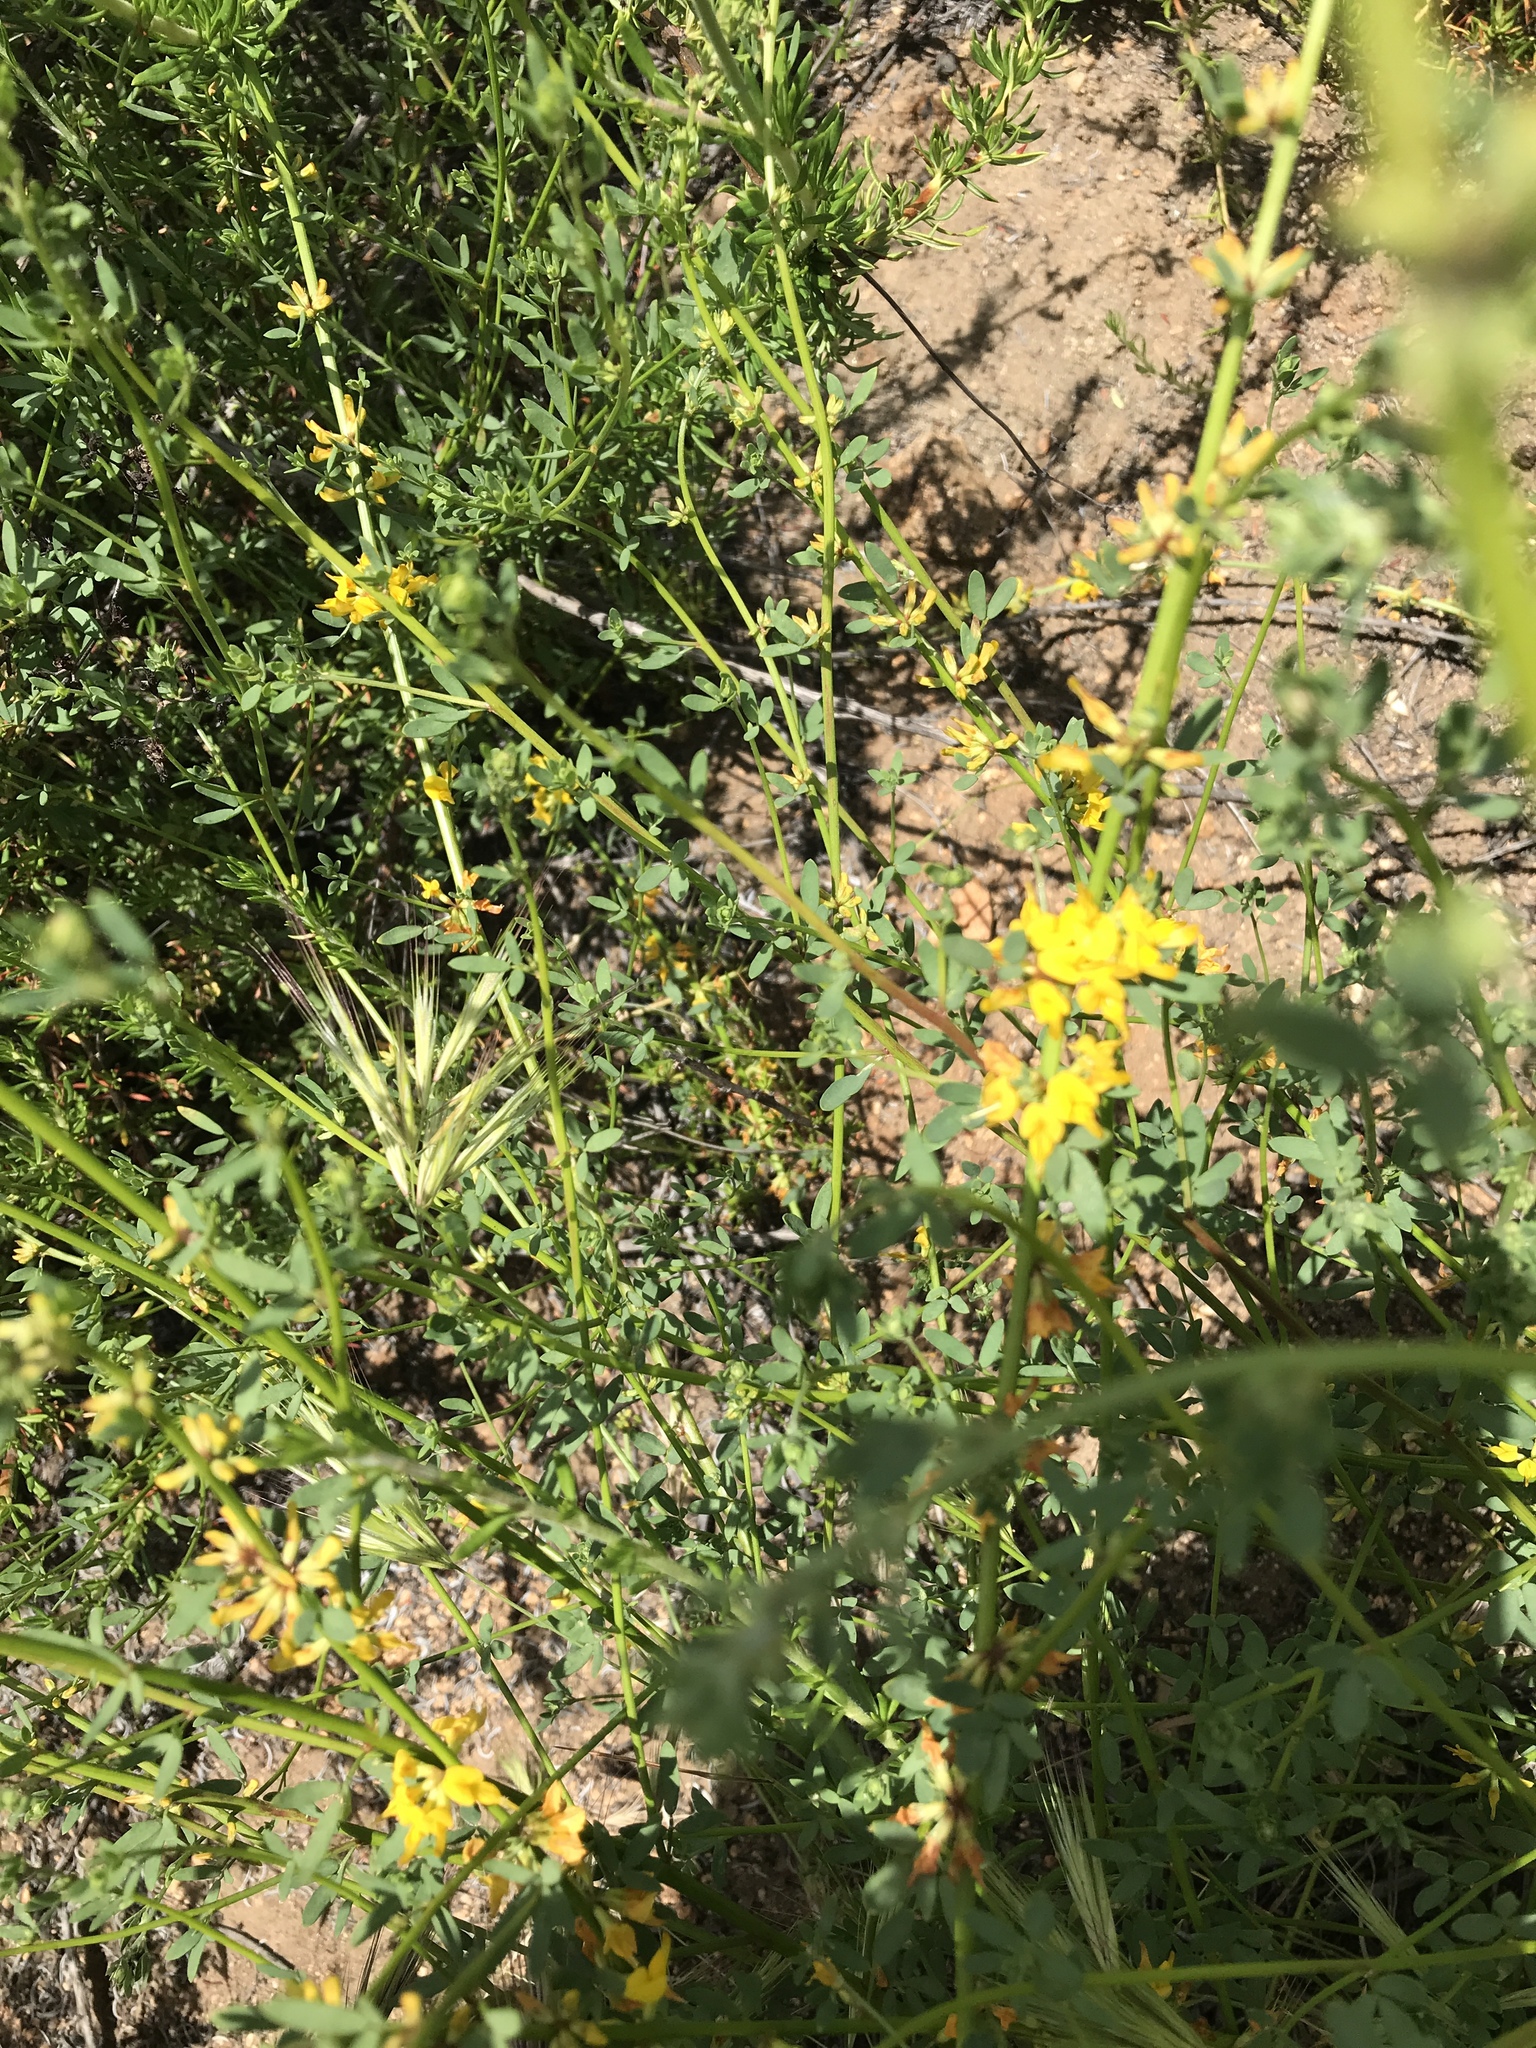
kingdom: Plantae
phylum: Tracheophyta
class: Magnoliopsida
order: Fabales
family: Fabaceae
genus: Acmispon
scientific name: Acmispon glaber
